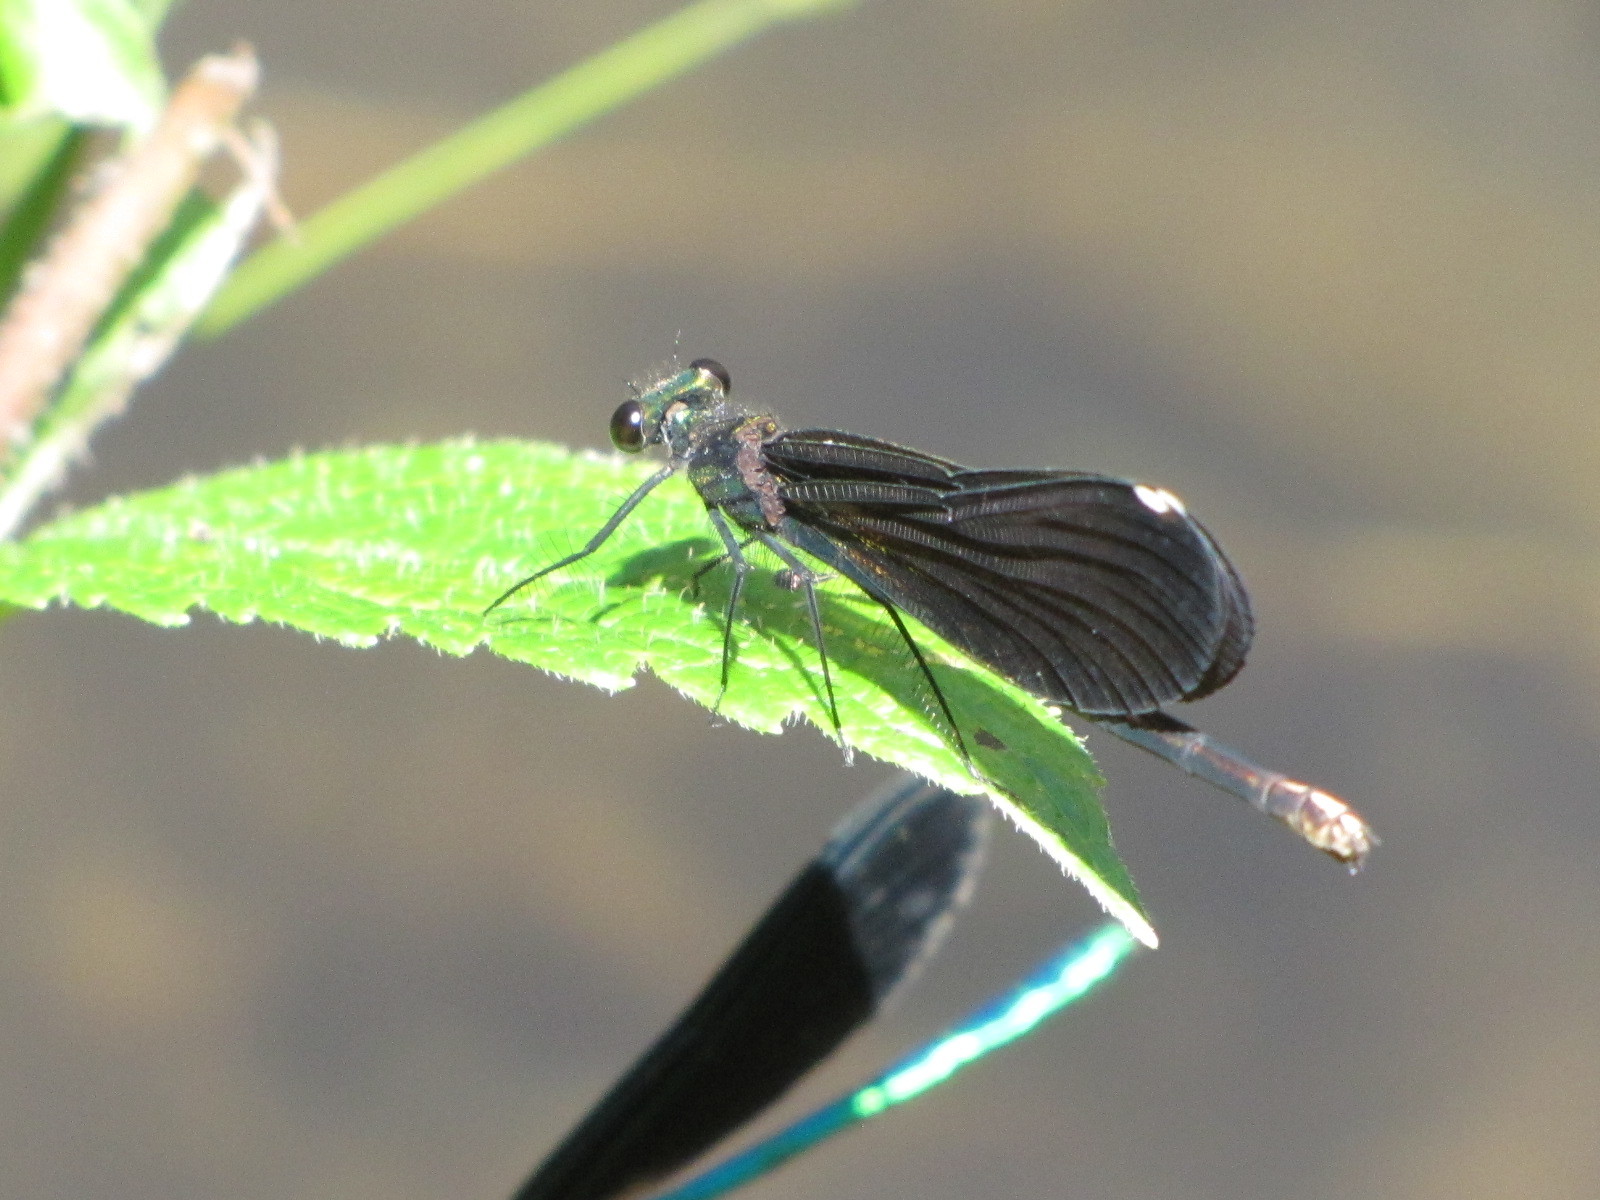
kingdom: Animalia
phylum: Arthropoda
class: Insecta
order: Odonata
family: Calopterygidae
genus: Calopteryx
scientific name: Calopteryx maculata
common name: Ebony jewelwing
